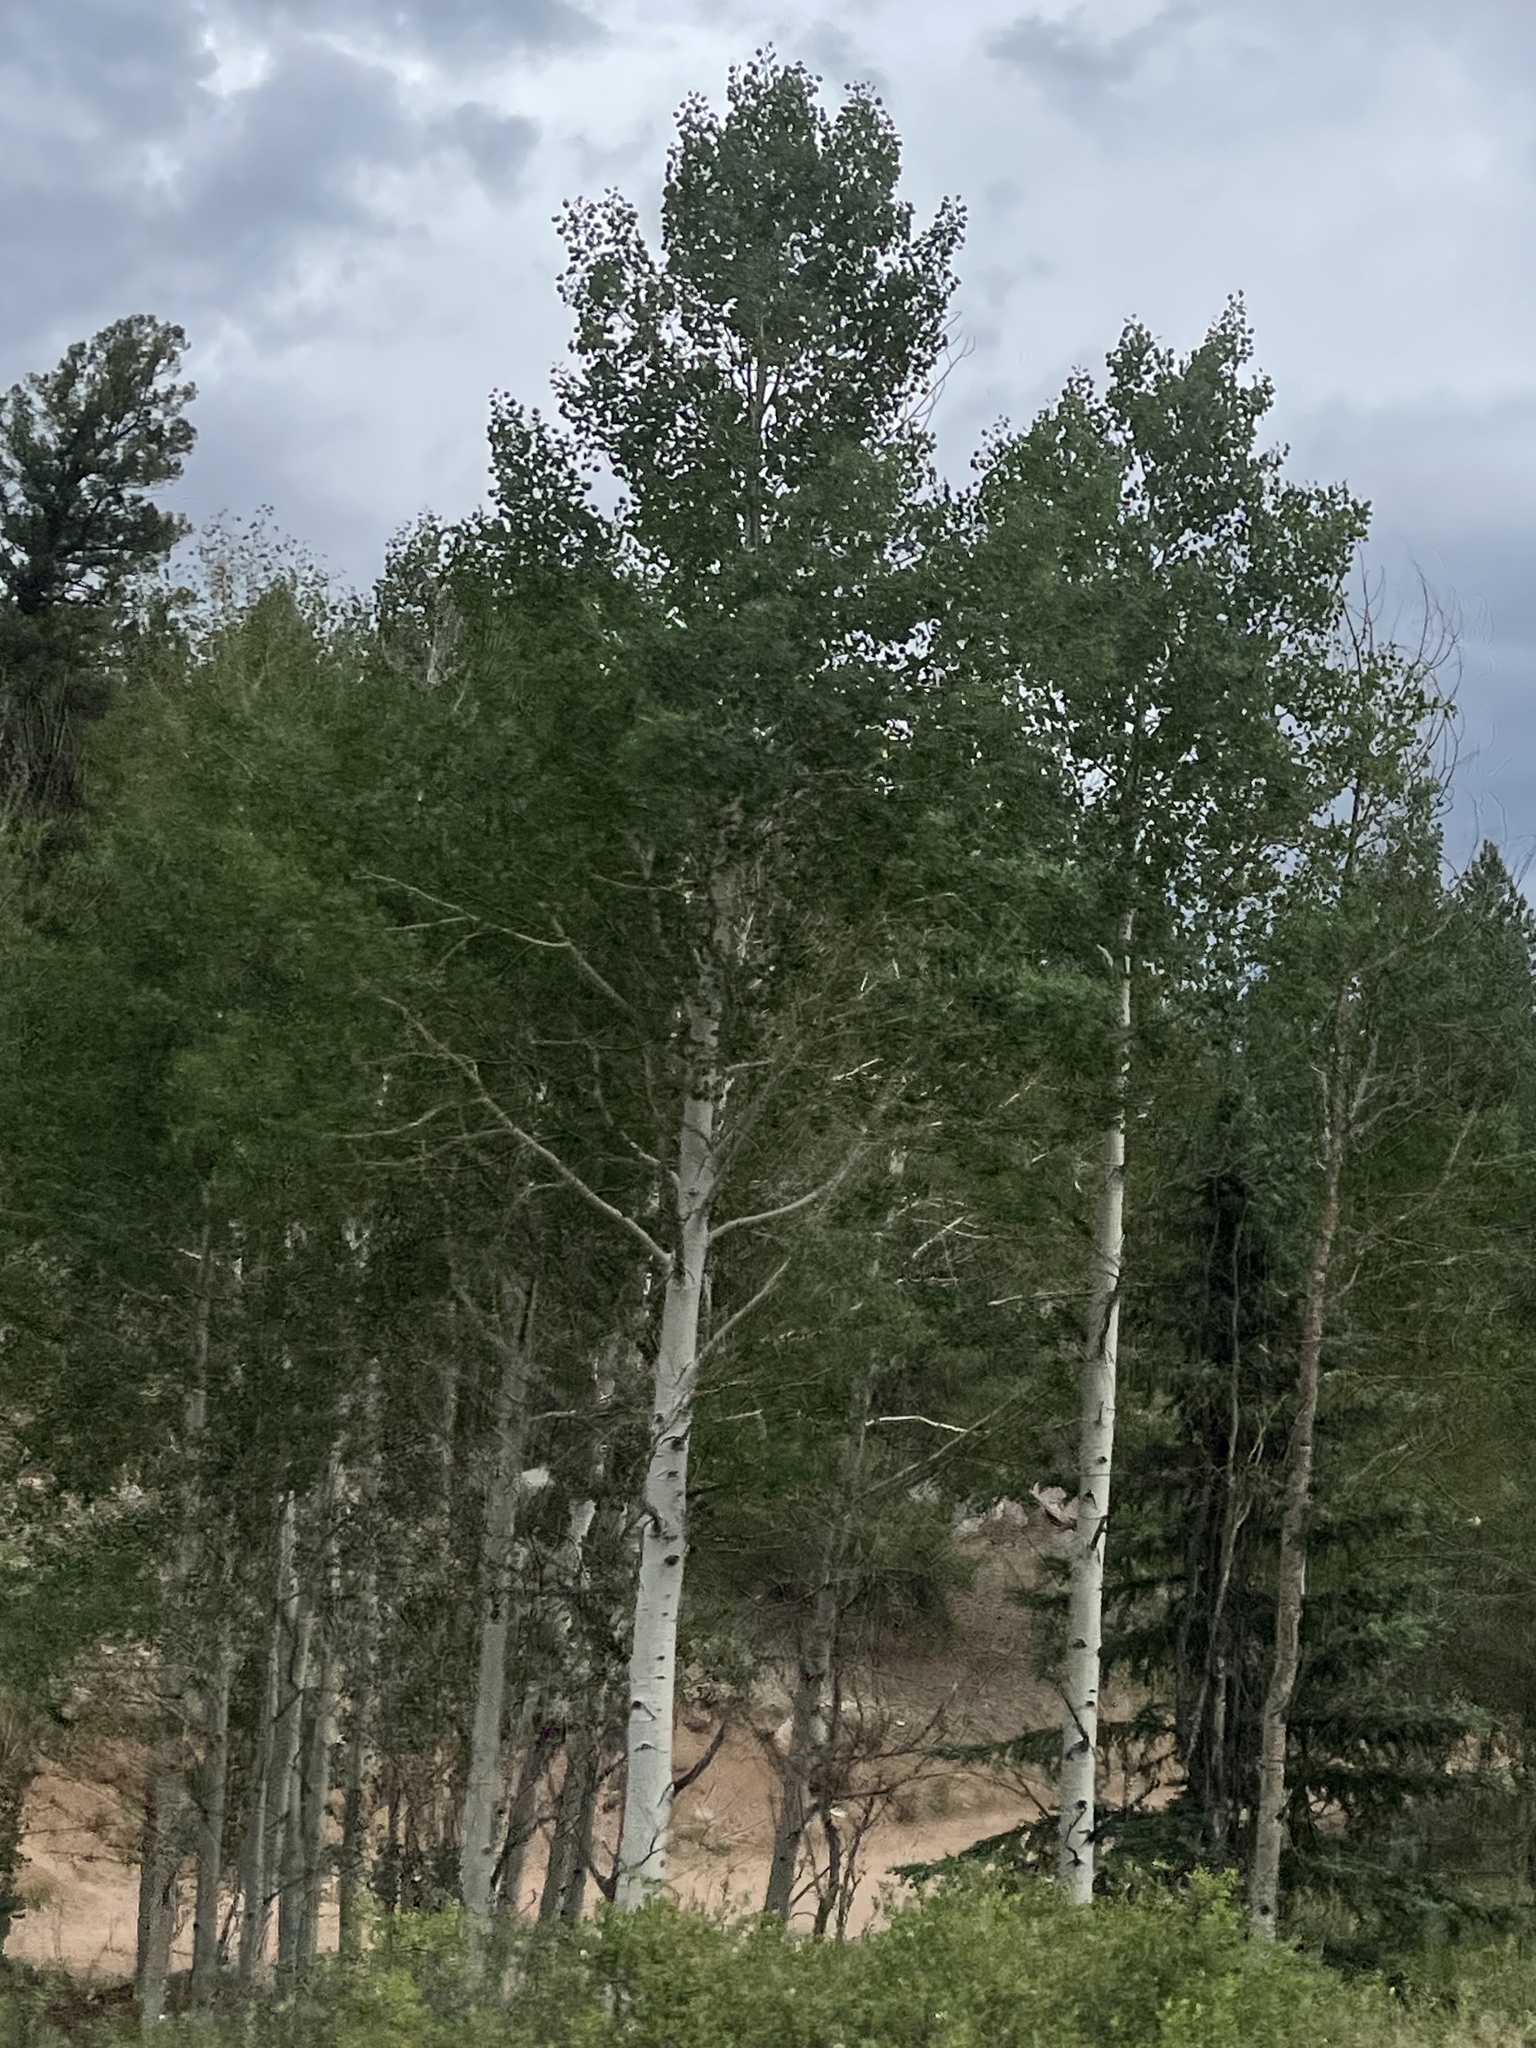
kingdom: Plantae
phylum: Tracheophyta
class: Magnoliopsida
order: Malpighiales
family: Salicaceae
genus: Populus
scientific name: Populus tremuloides
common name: Quaking aspen
